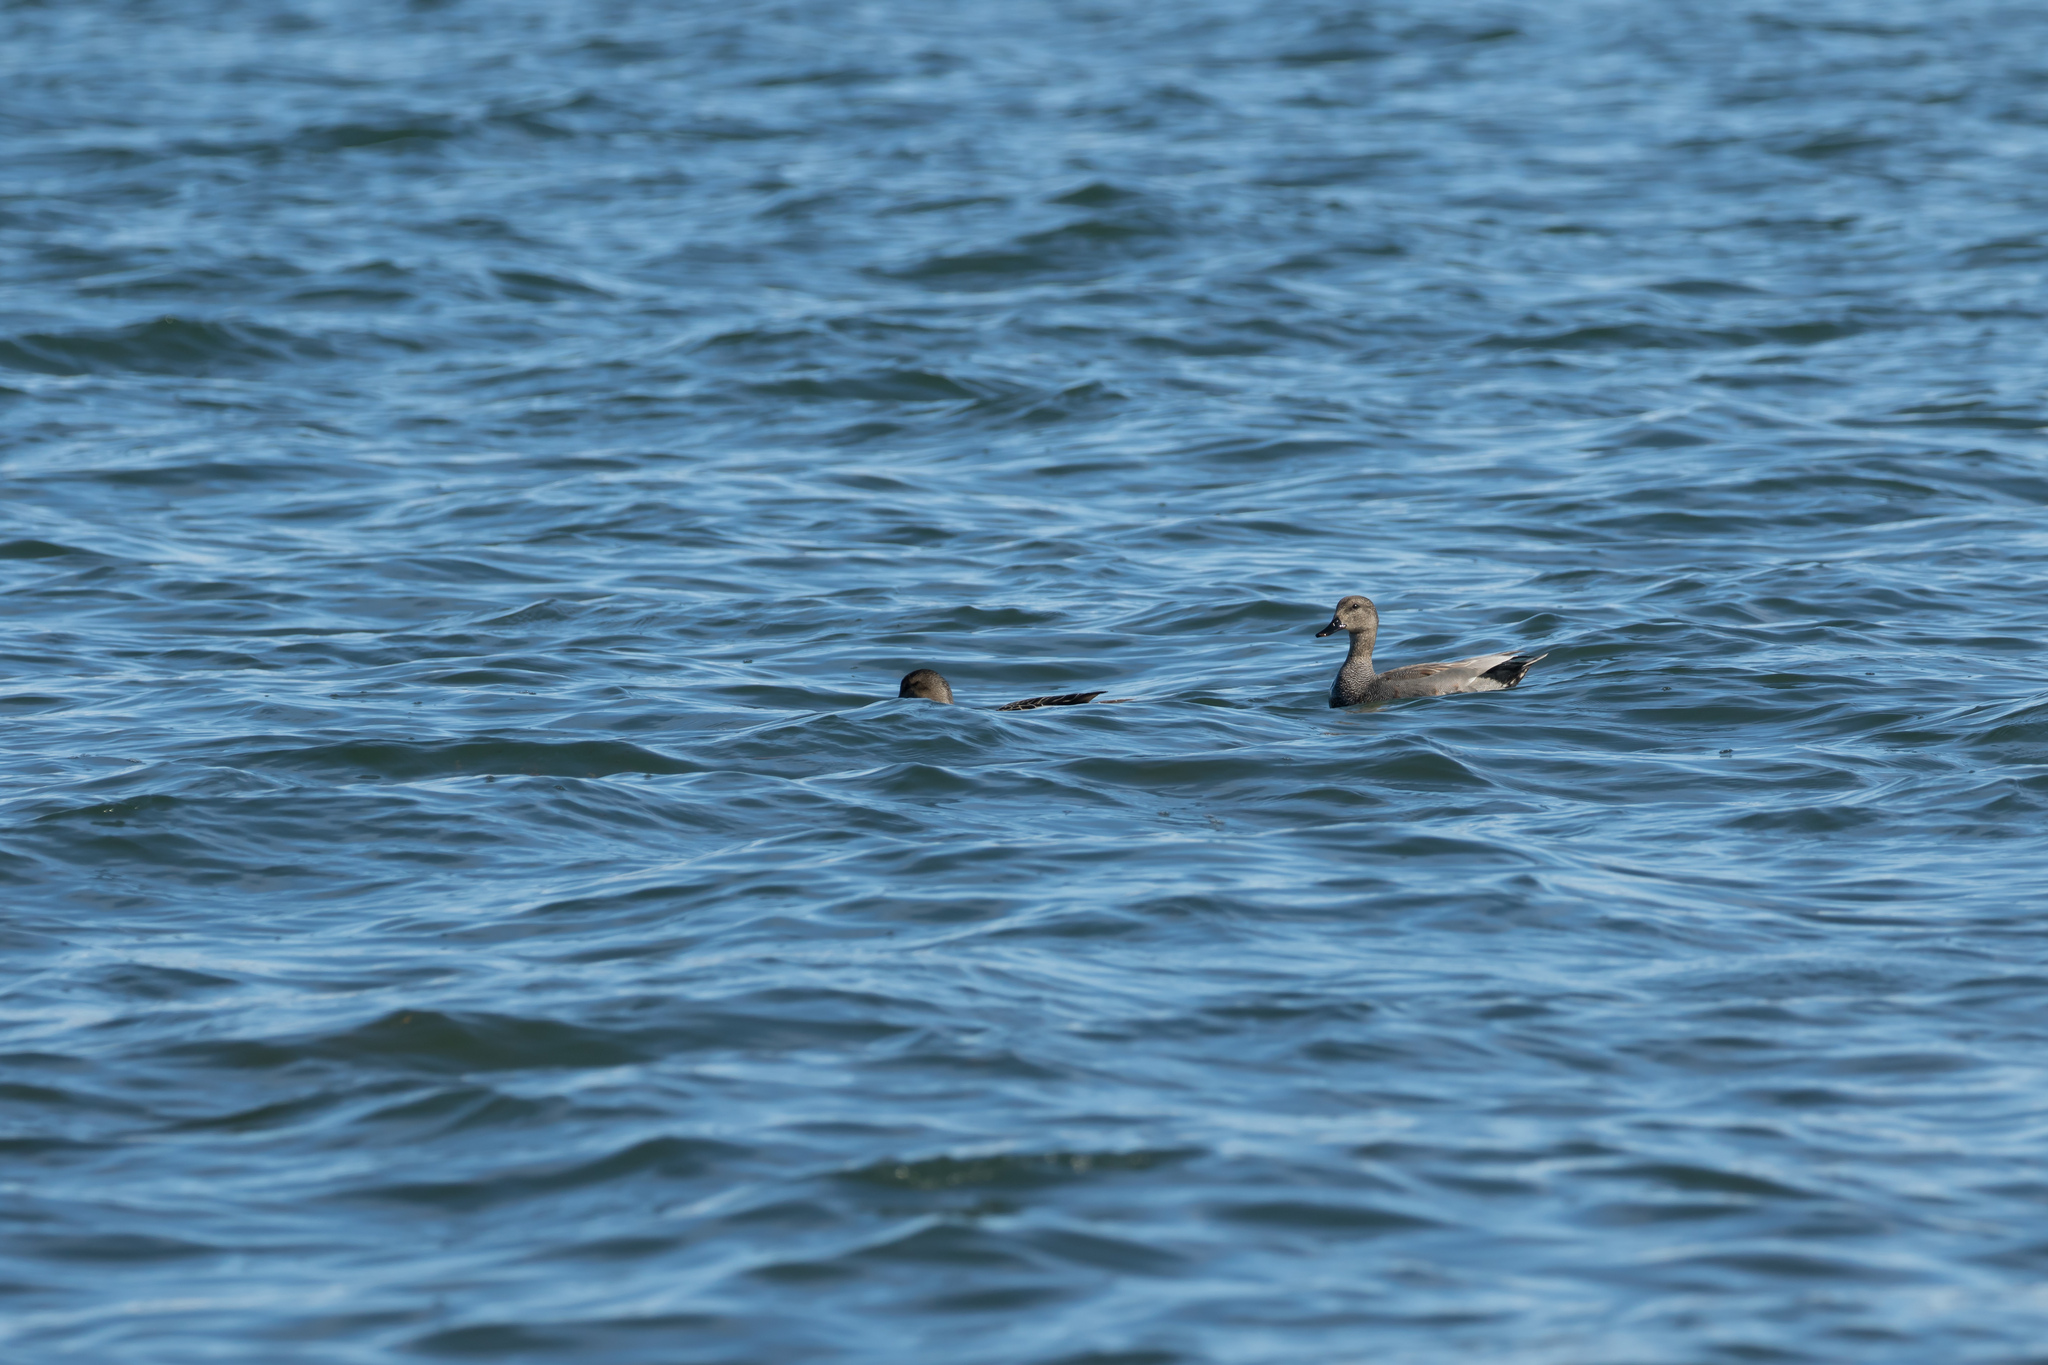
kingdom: Animalia
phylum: Chordata
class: Aves
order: Anseriformes
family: Anatidae
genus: Mareca
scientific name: Mareca strepera
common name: Gadwall
